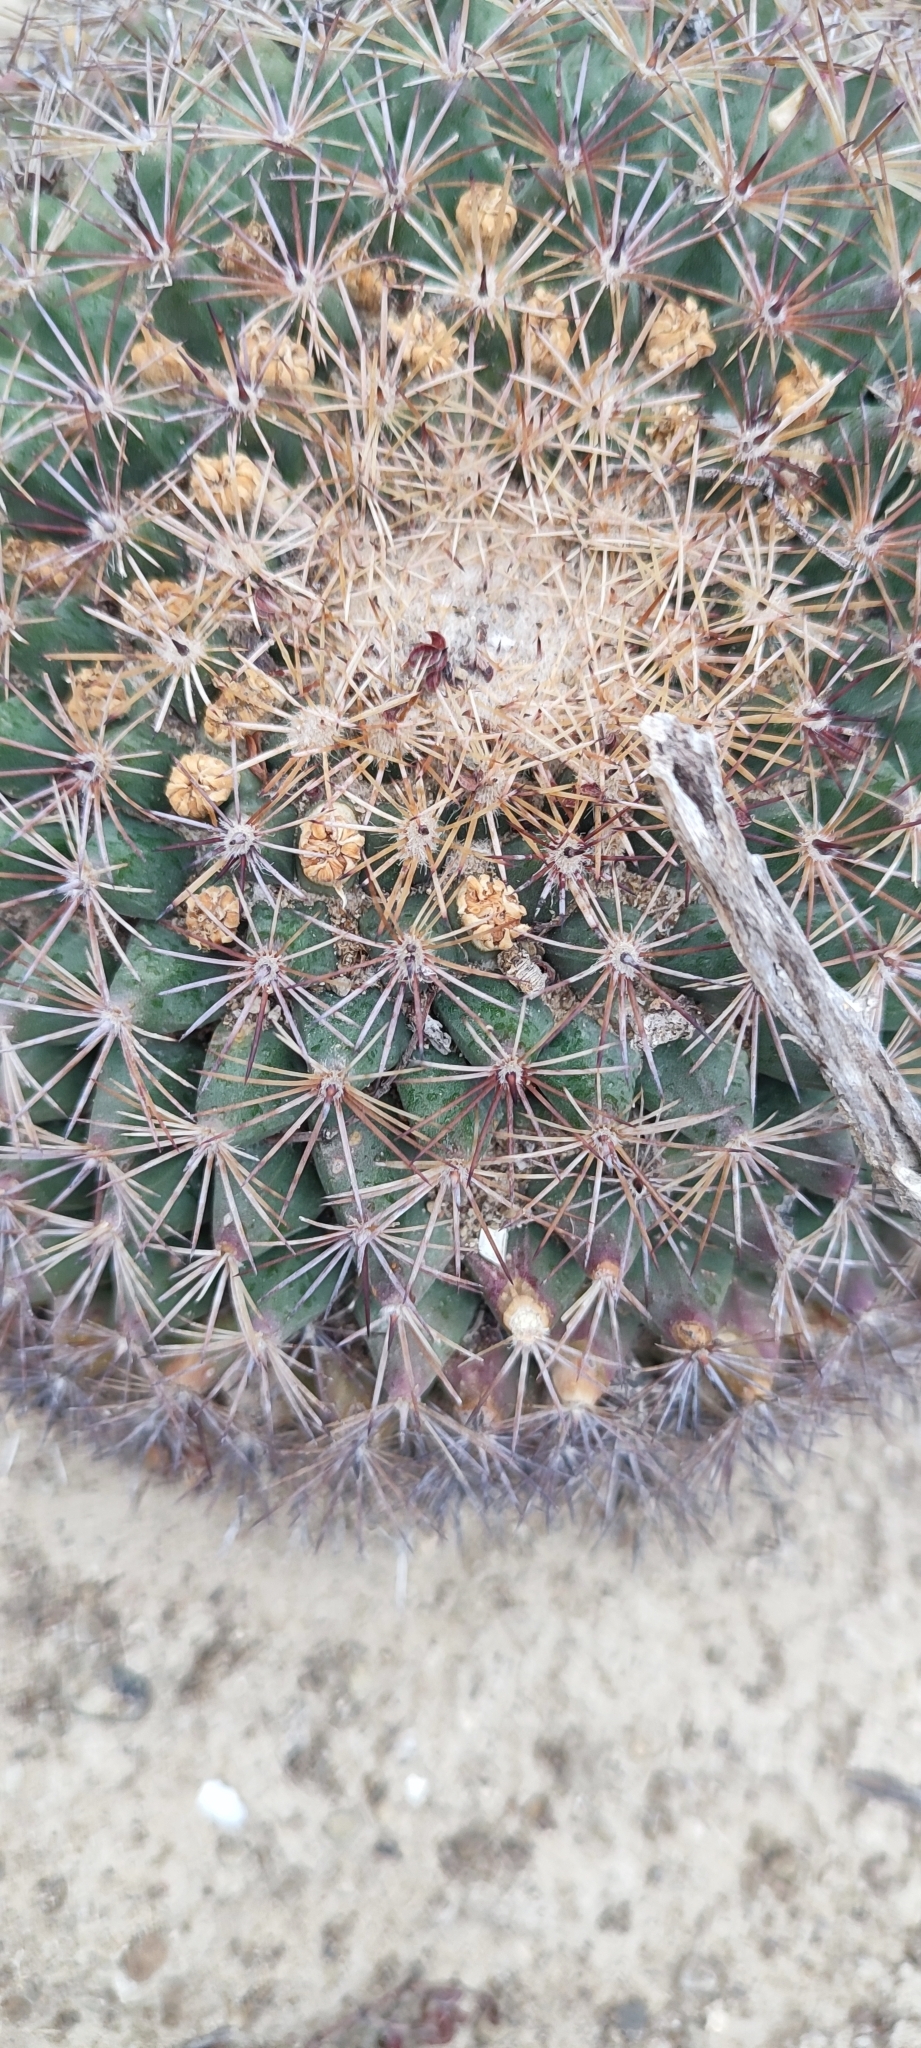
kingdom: Plantae
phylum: Tracheophyta
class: Magnoliopsida
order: Caryophyllales
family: Cactaceae
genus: Mammillaria
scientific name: Mammillaria heyderi
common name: Little nipple cactus
